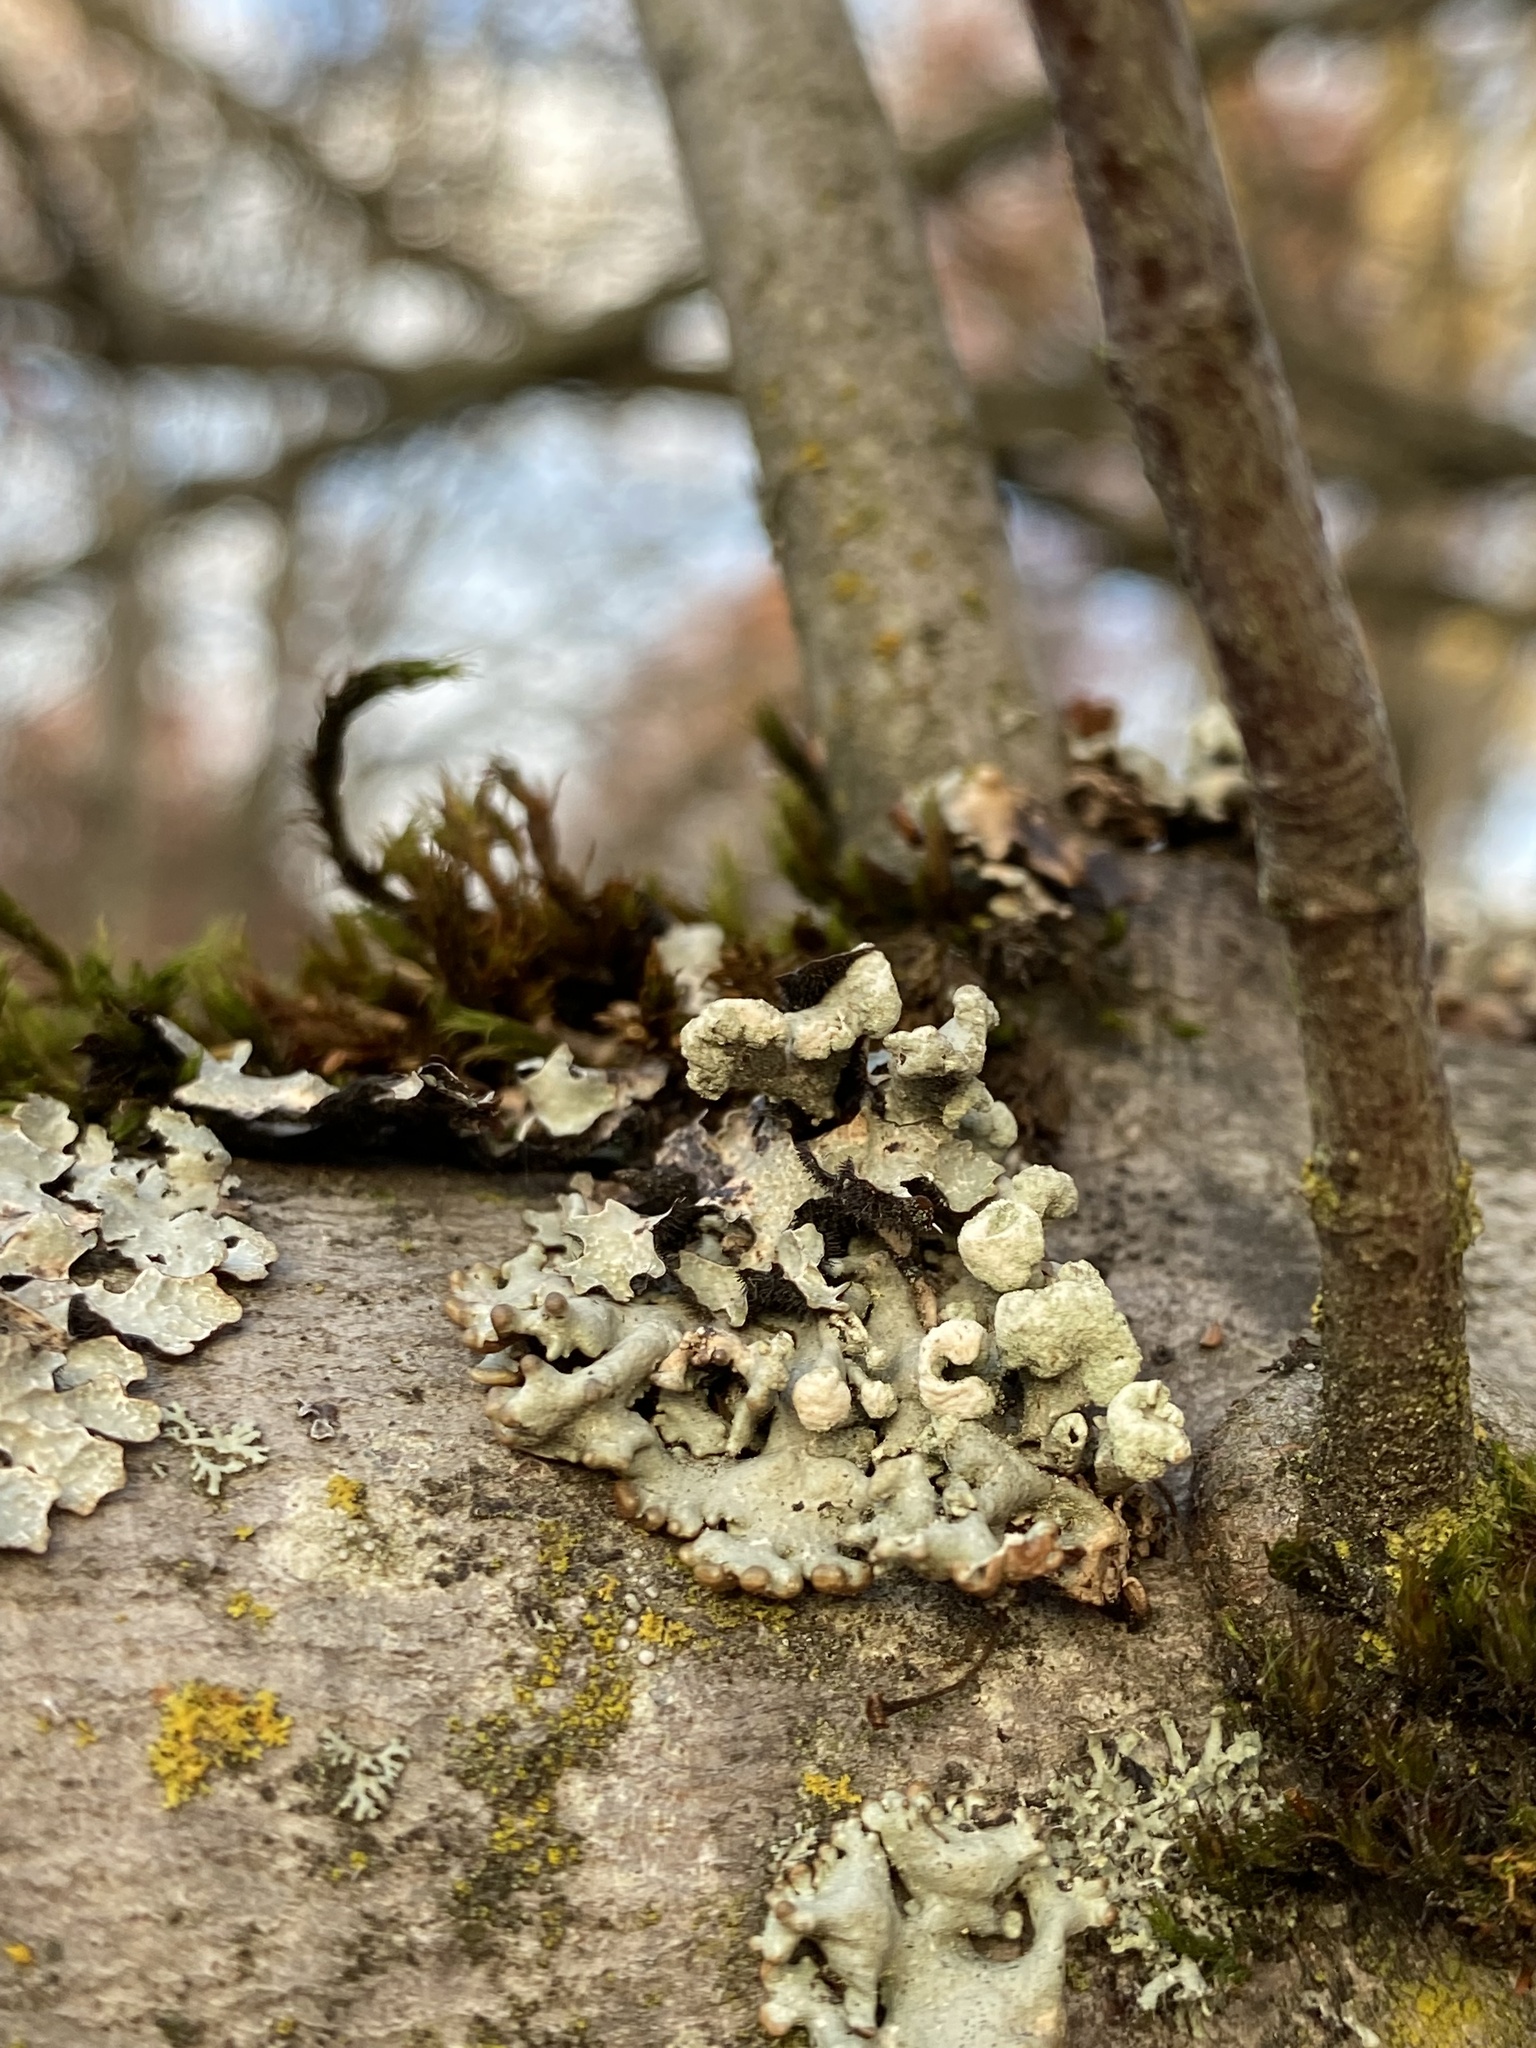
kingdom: Fungi
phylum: Ascomycota
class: Lecanoromycetes
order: Lecanorales
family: Parmeliaceae
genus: Hypogymnia
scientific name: Hypogymnia tubulosa
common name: Powder-headed tube lichen
